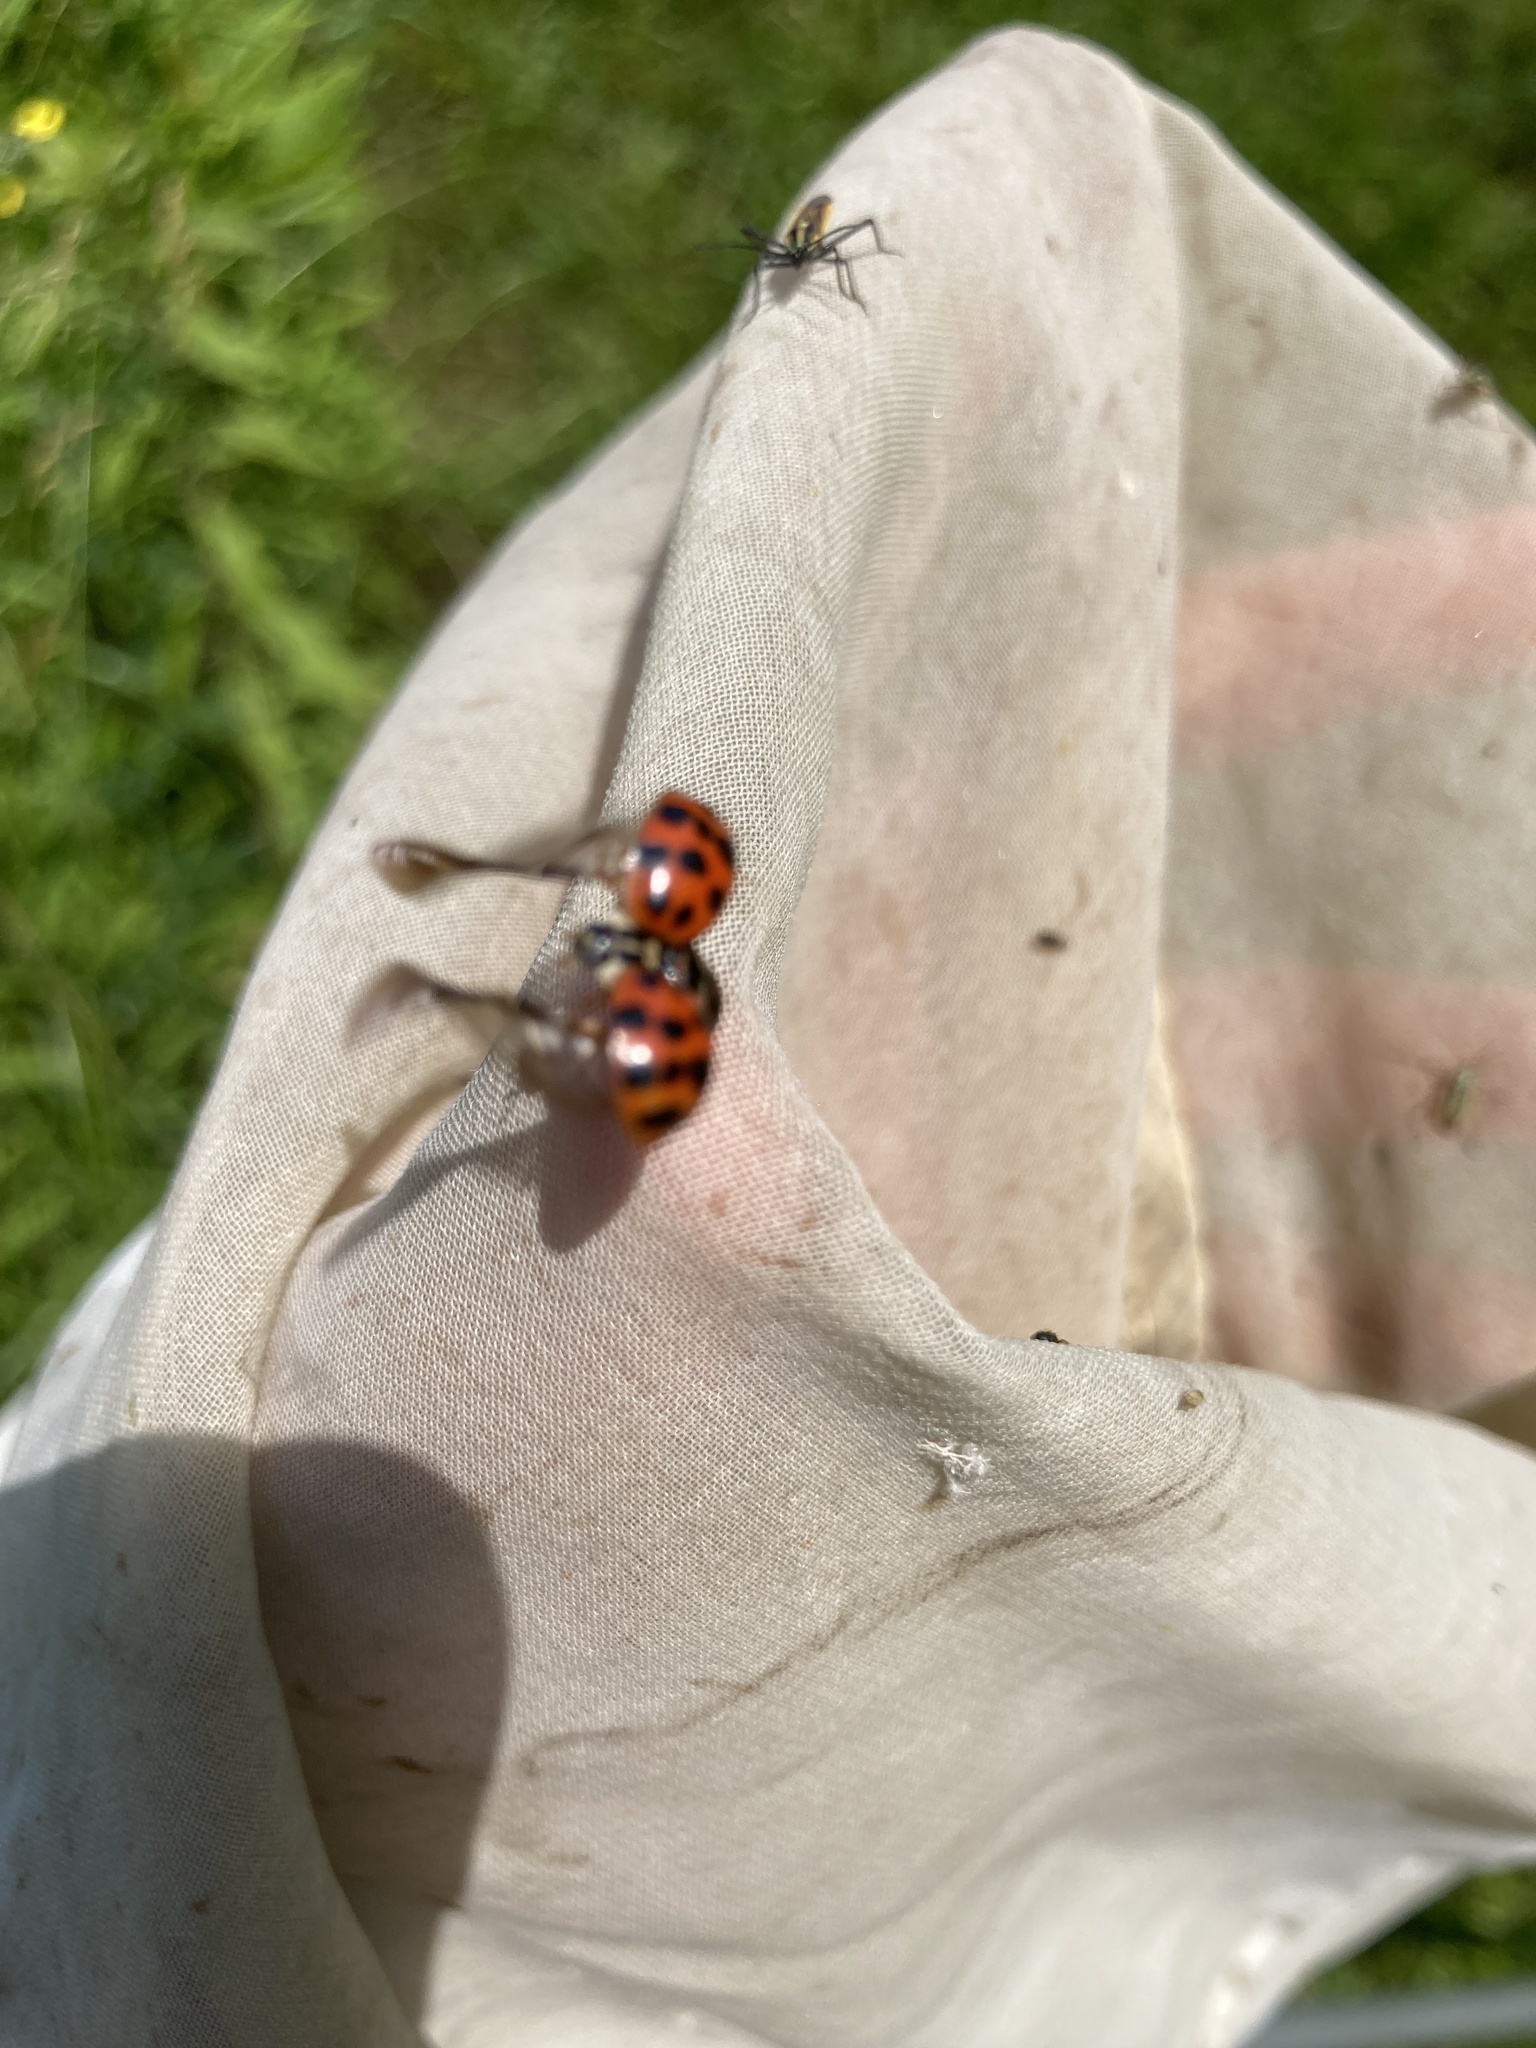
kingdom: Animalia
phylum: Arthropoda
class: Insecta
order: Coleoptera
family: Coccinellidae
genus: Harmonia
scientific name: Harmonia axyridis
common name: Harlequin ladybird
